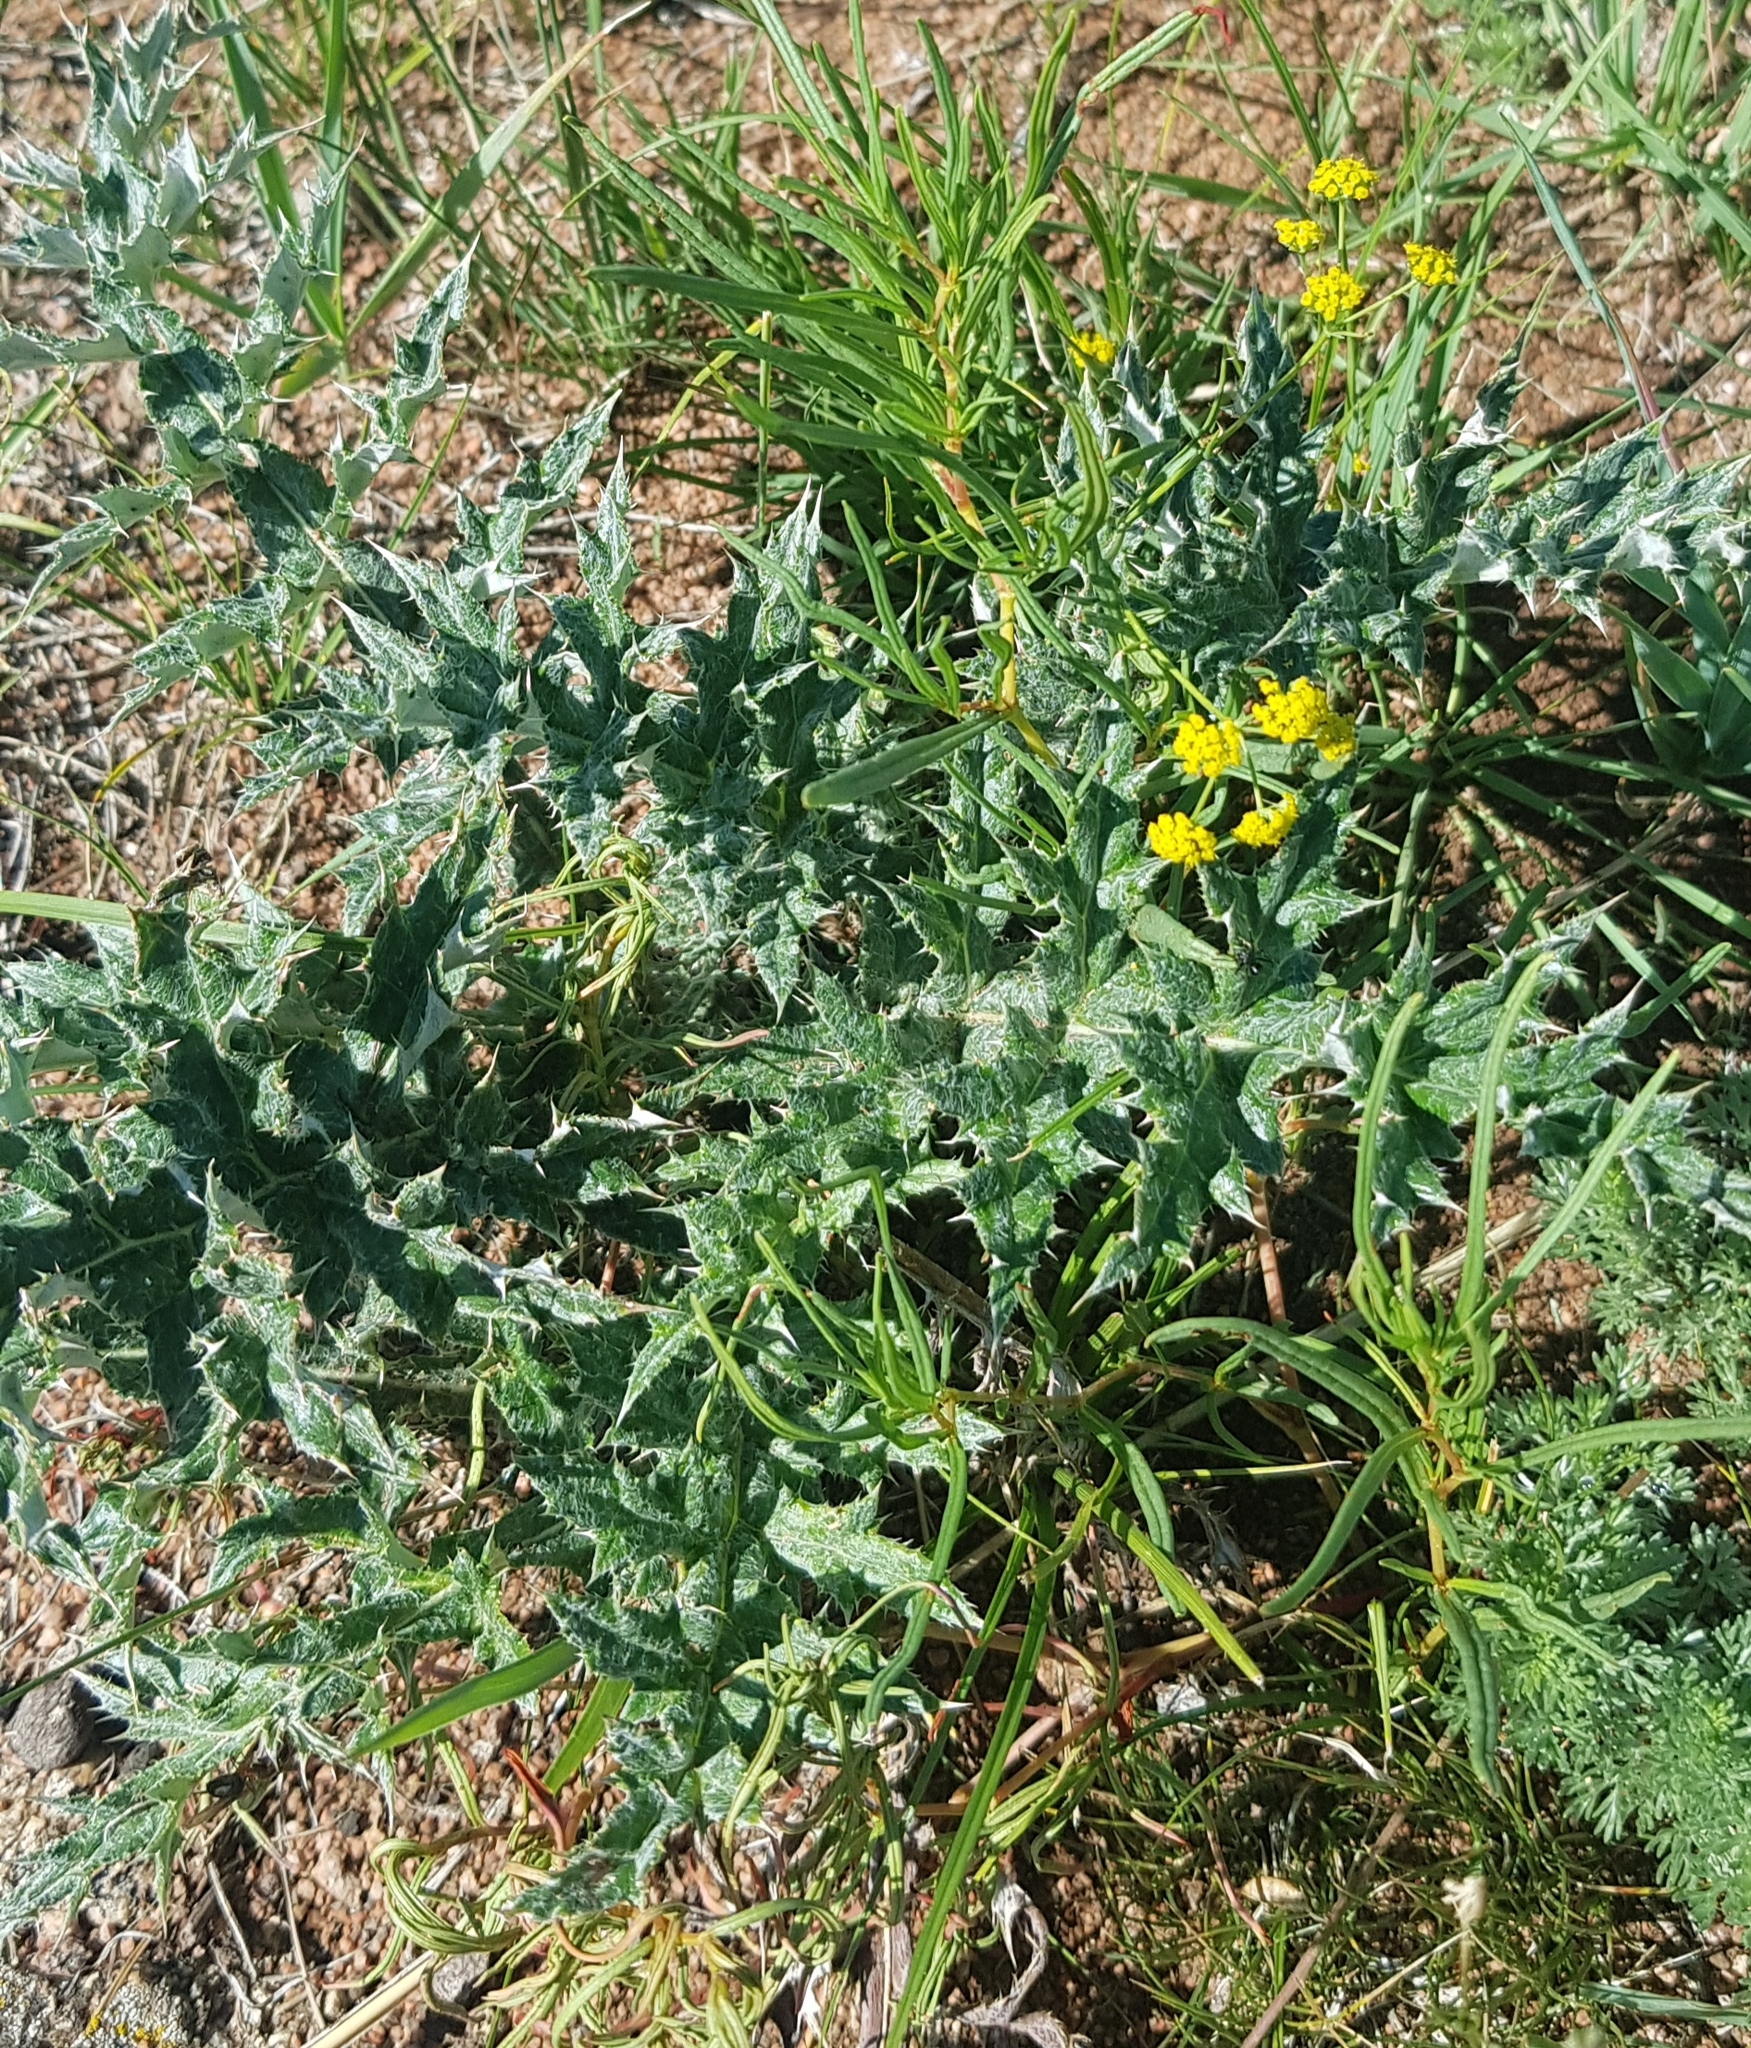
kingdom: Plantae
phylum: Tracheophyta
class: Magnoliopsida
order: Asterales
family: Asteraceae
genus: Echinops
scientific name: Echinops davuricus
